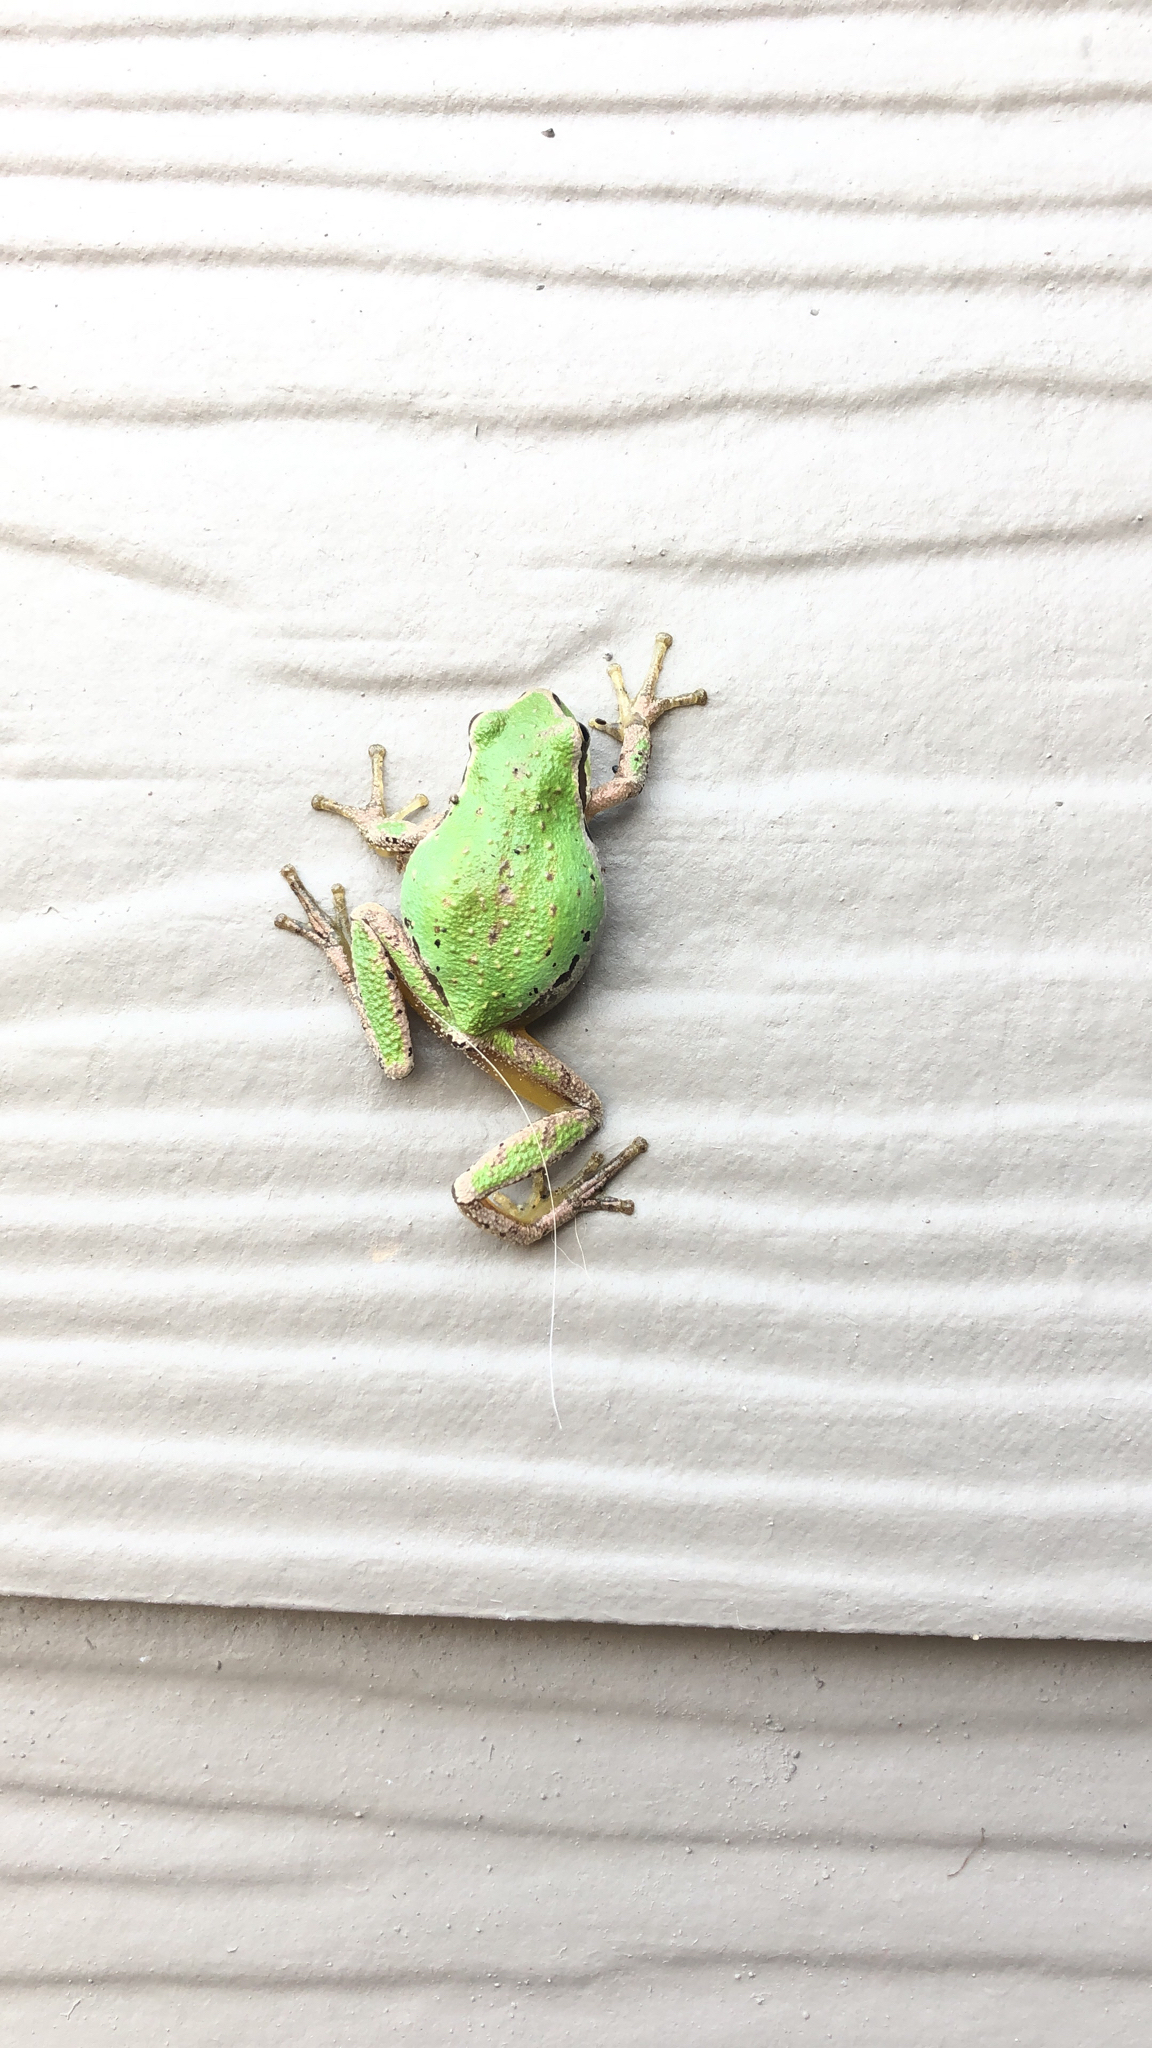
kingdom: Animalia
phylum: Chordata
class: Amphibia
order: Anura
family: Hylidae
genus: Pseudacris
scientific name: Pseudacris regilla
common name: Pacific chorus frog
